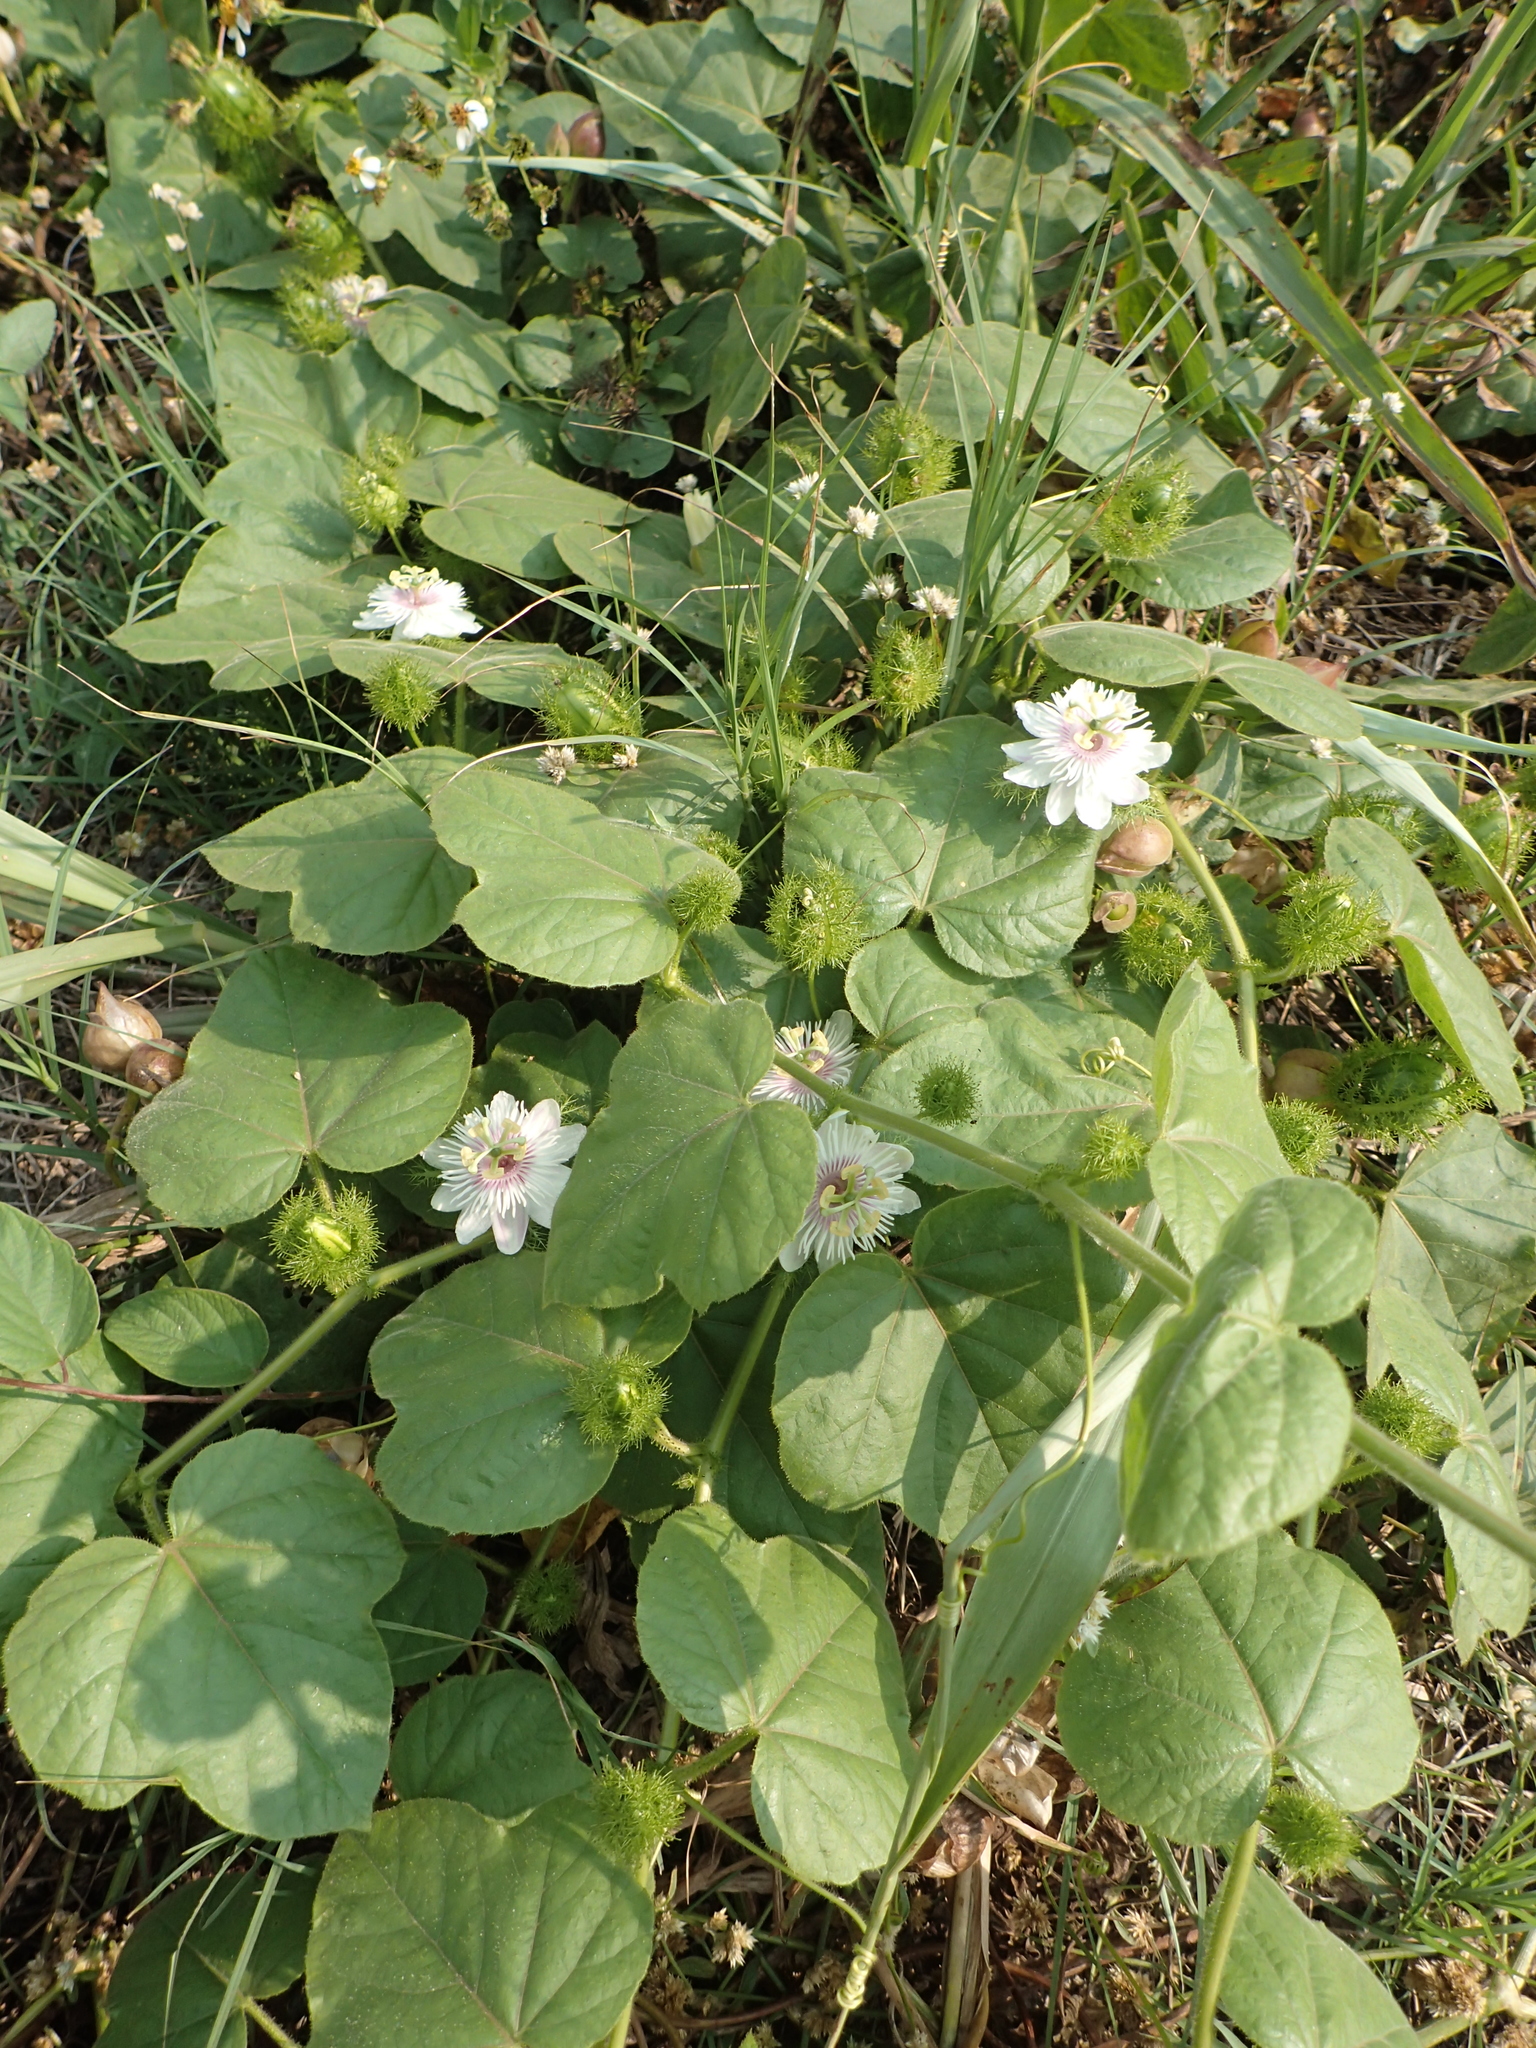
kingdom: Plantae
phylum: Tracheophyta
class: Magnoliopsida
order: Malpighiales
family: Passifloraceae
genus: Passiflora
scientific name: Passiflora vesicaria
